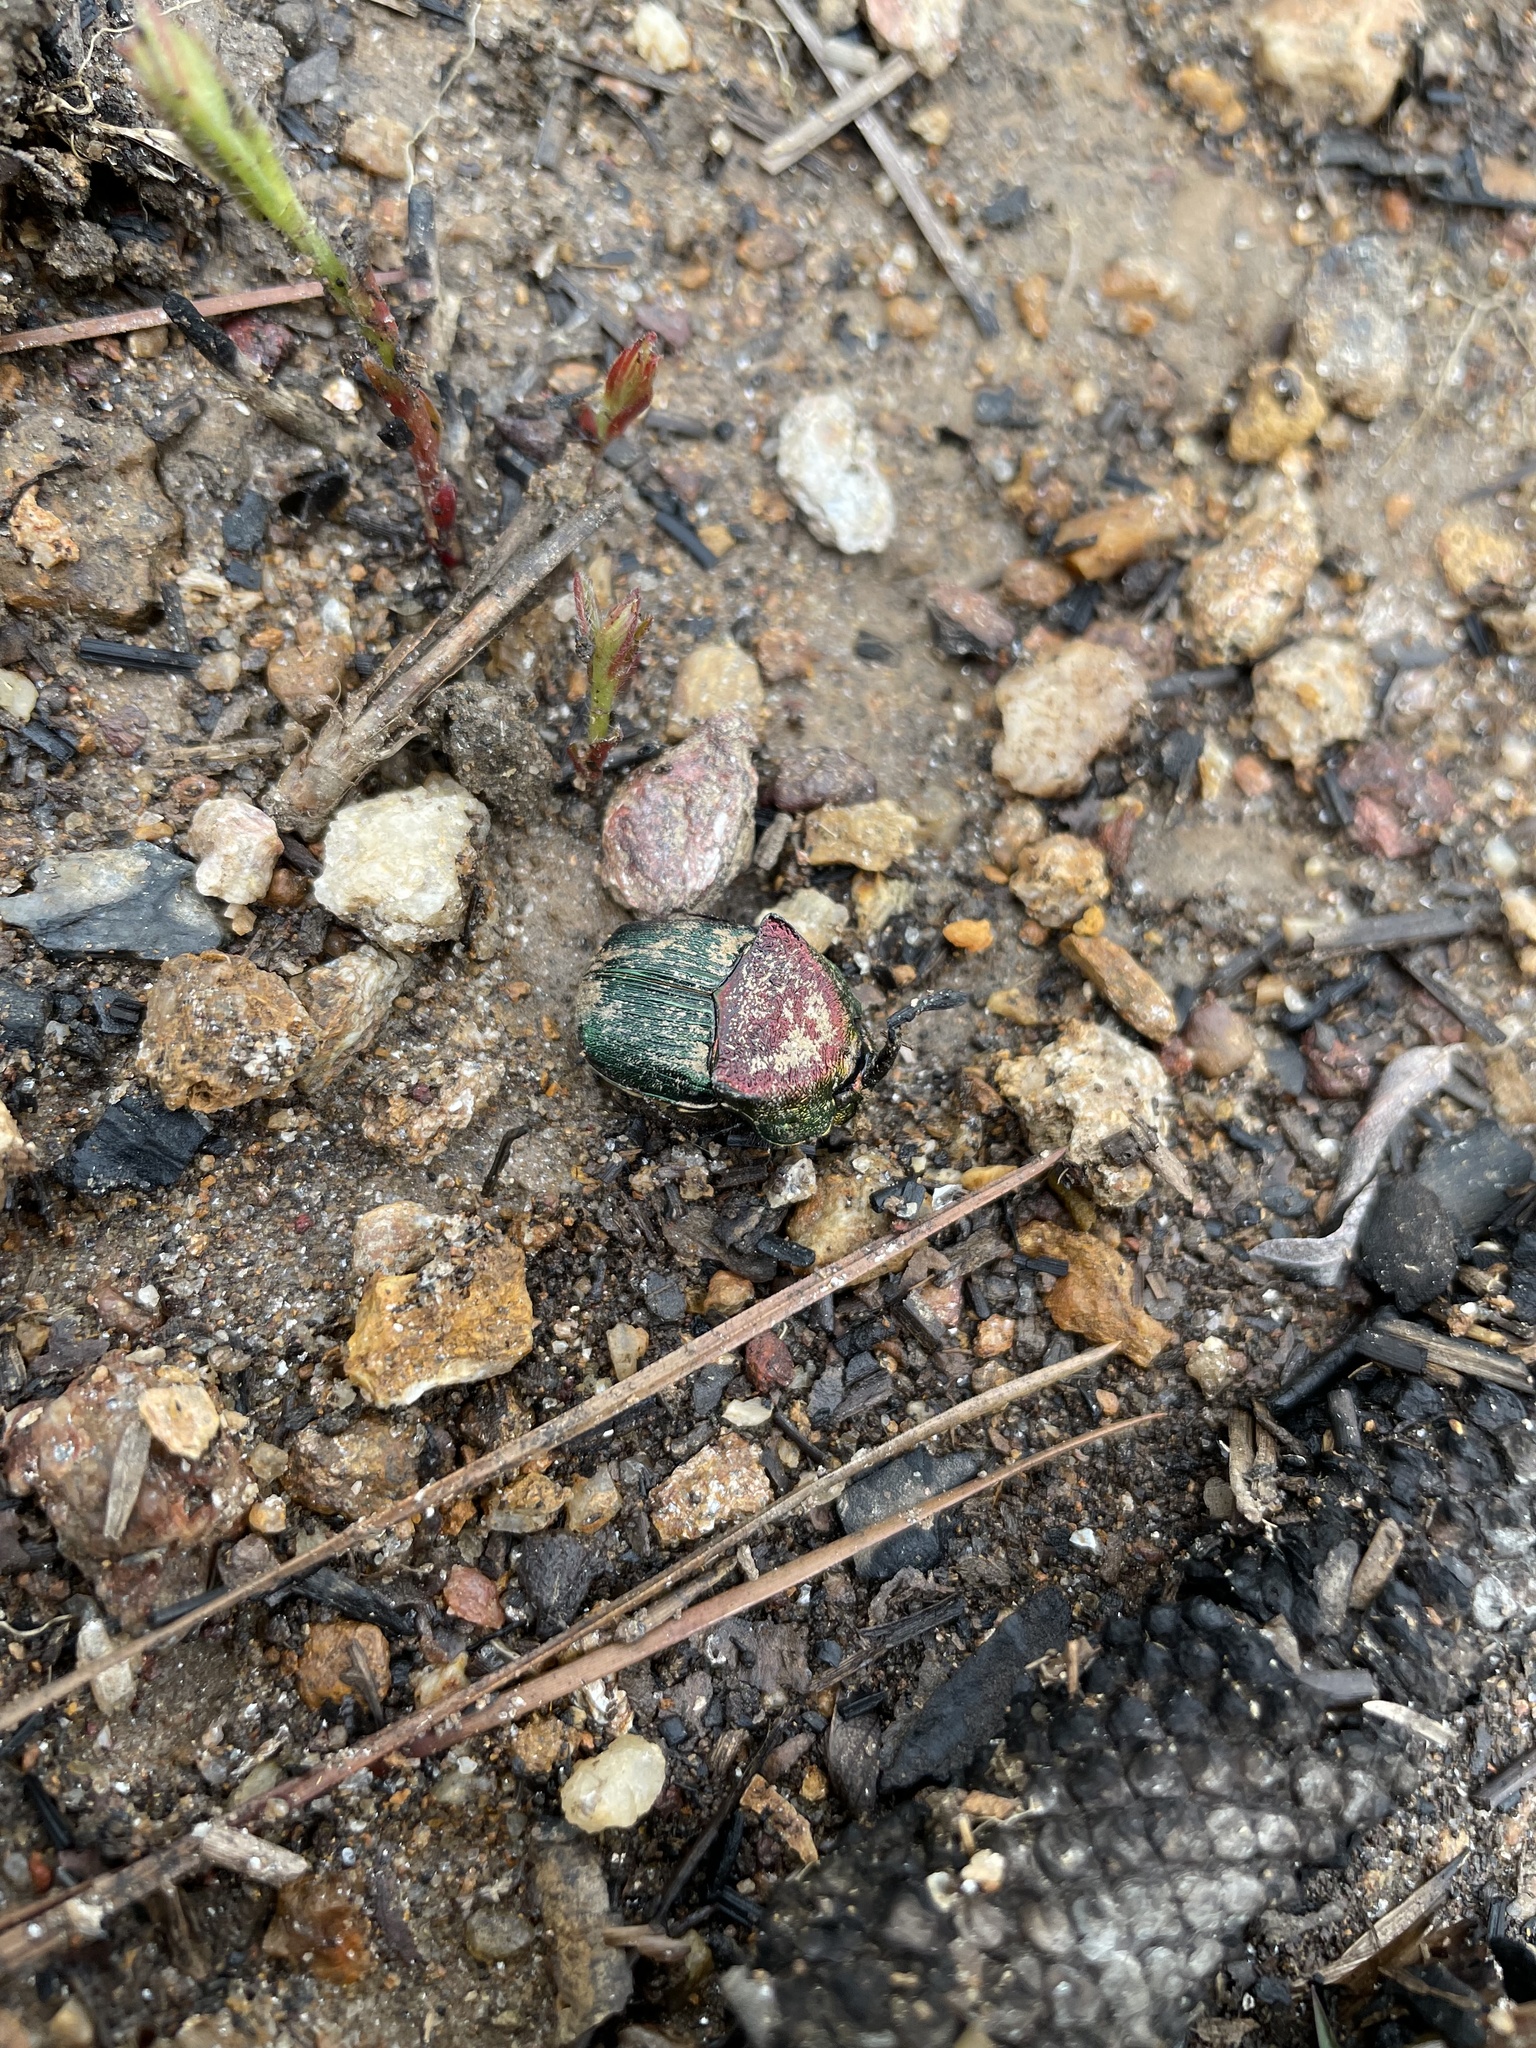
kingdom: Animalia
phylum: Arthropoda
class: Insecta
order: Coleoptera
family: Scarabaeidae
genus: Phanaeus
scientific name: Phanaeus vindex
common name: Rainbow scarab
